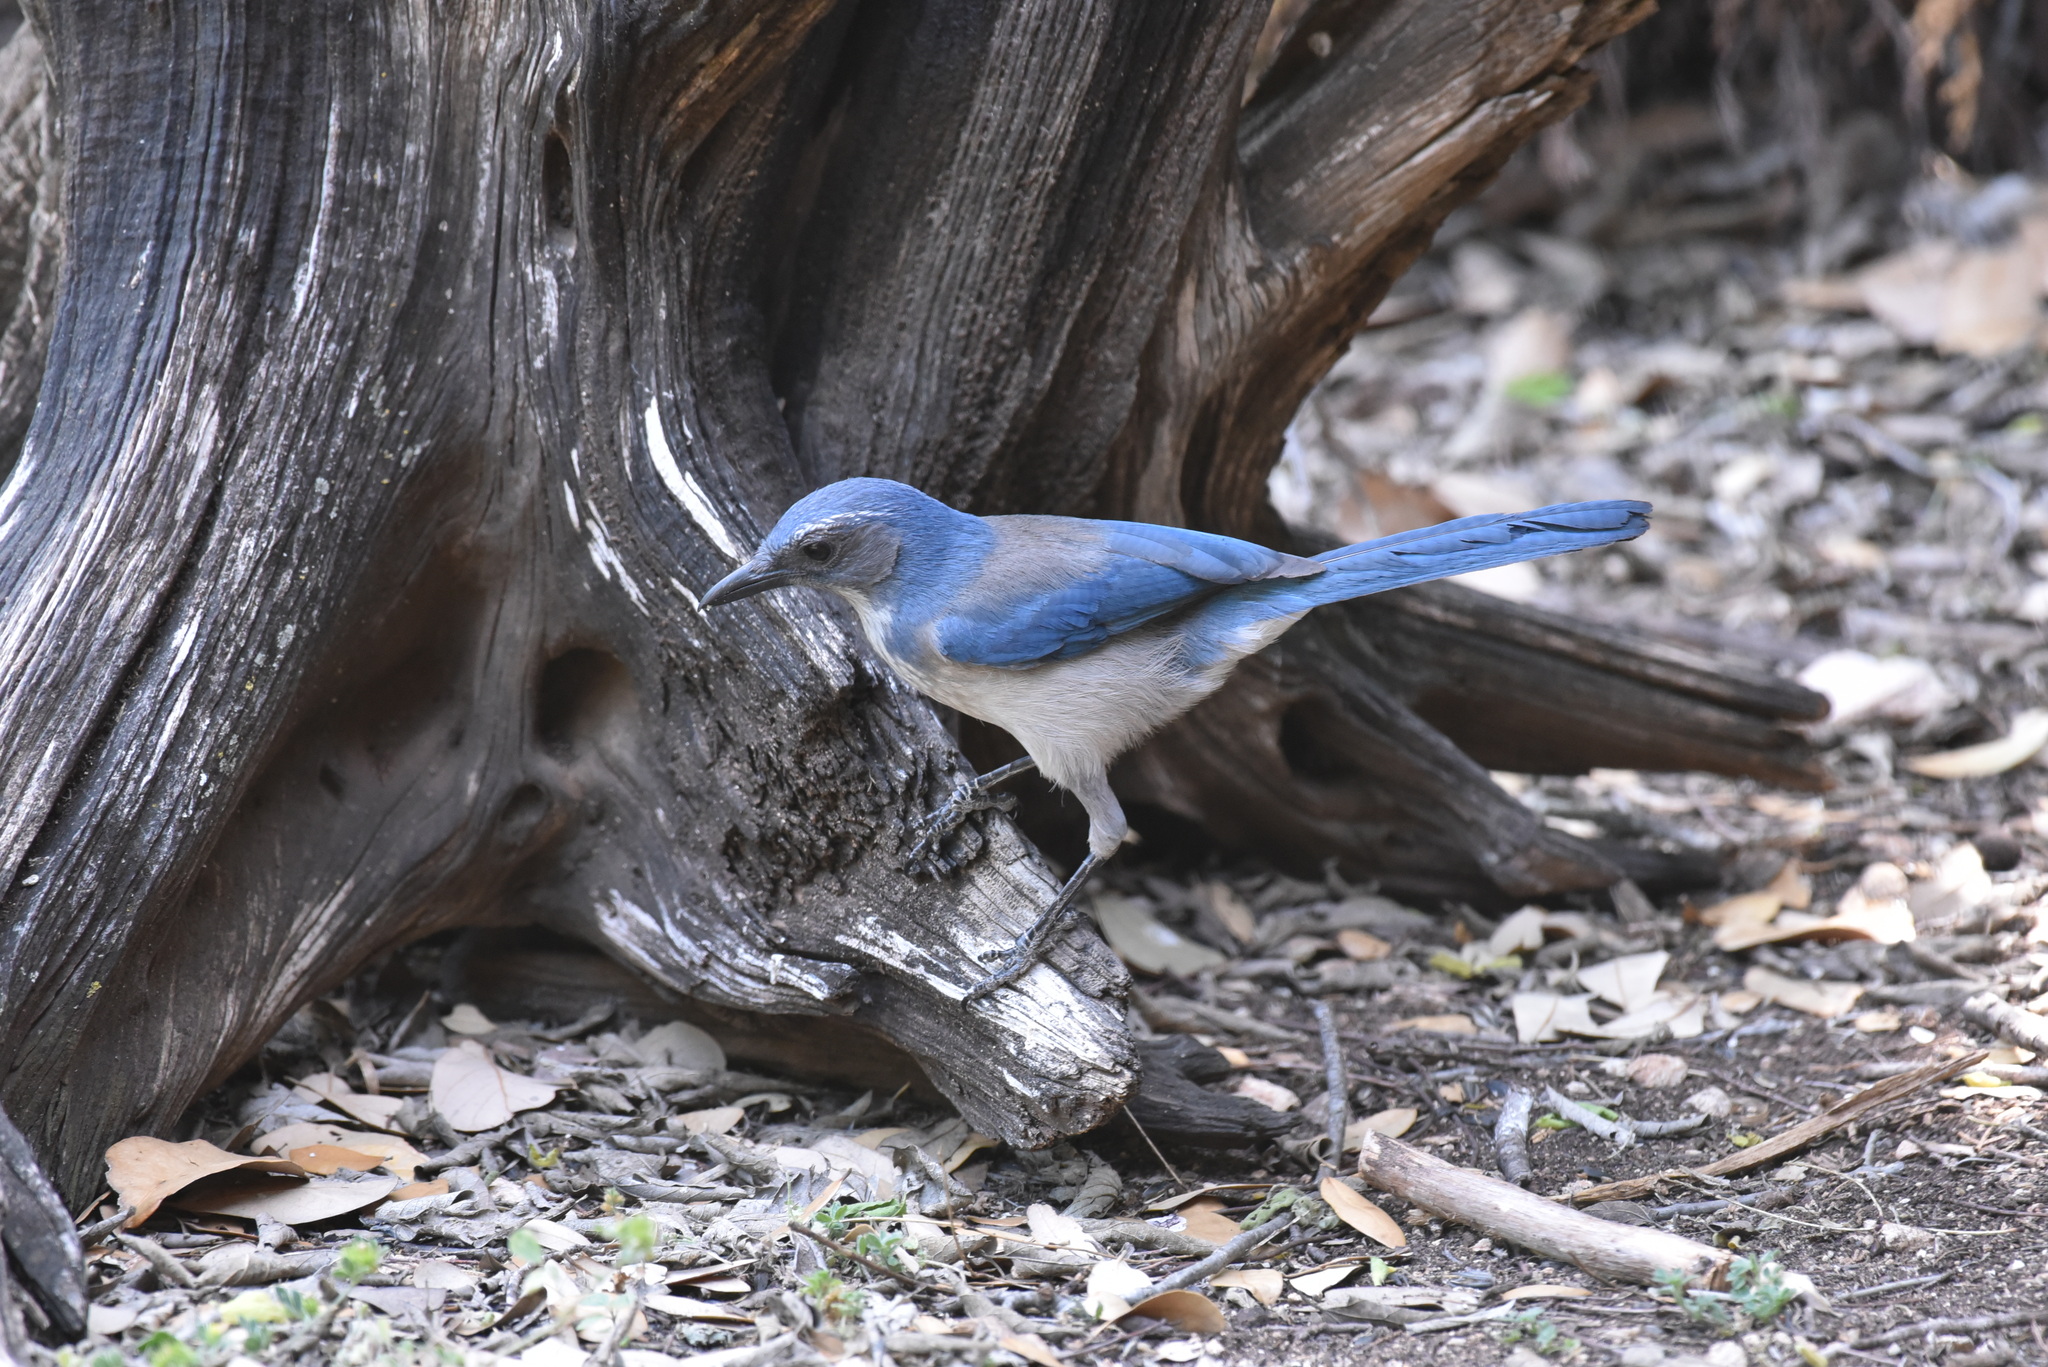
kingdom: Animalia
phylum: Chordata
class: Aves
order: Passeriformes
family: Corvidae
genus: Aphelocoma
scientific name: Aphelocoma woodhouseii
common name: Woodhouse's scrub-jay
